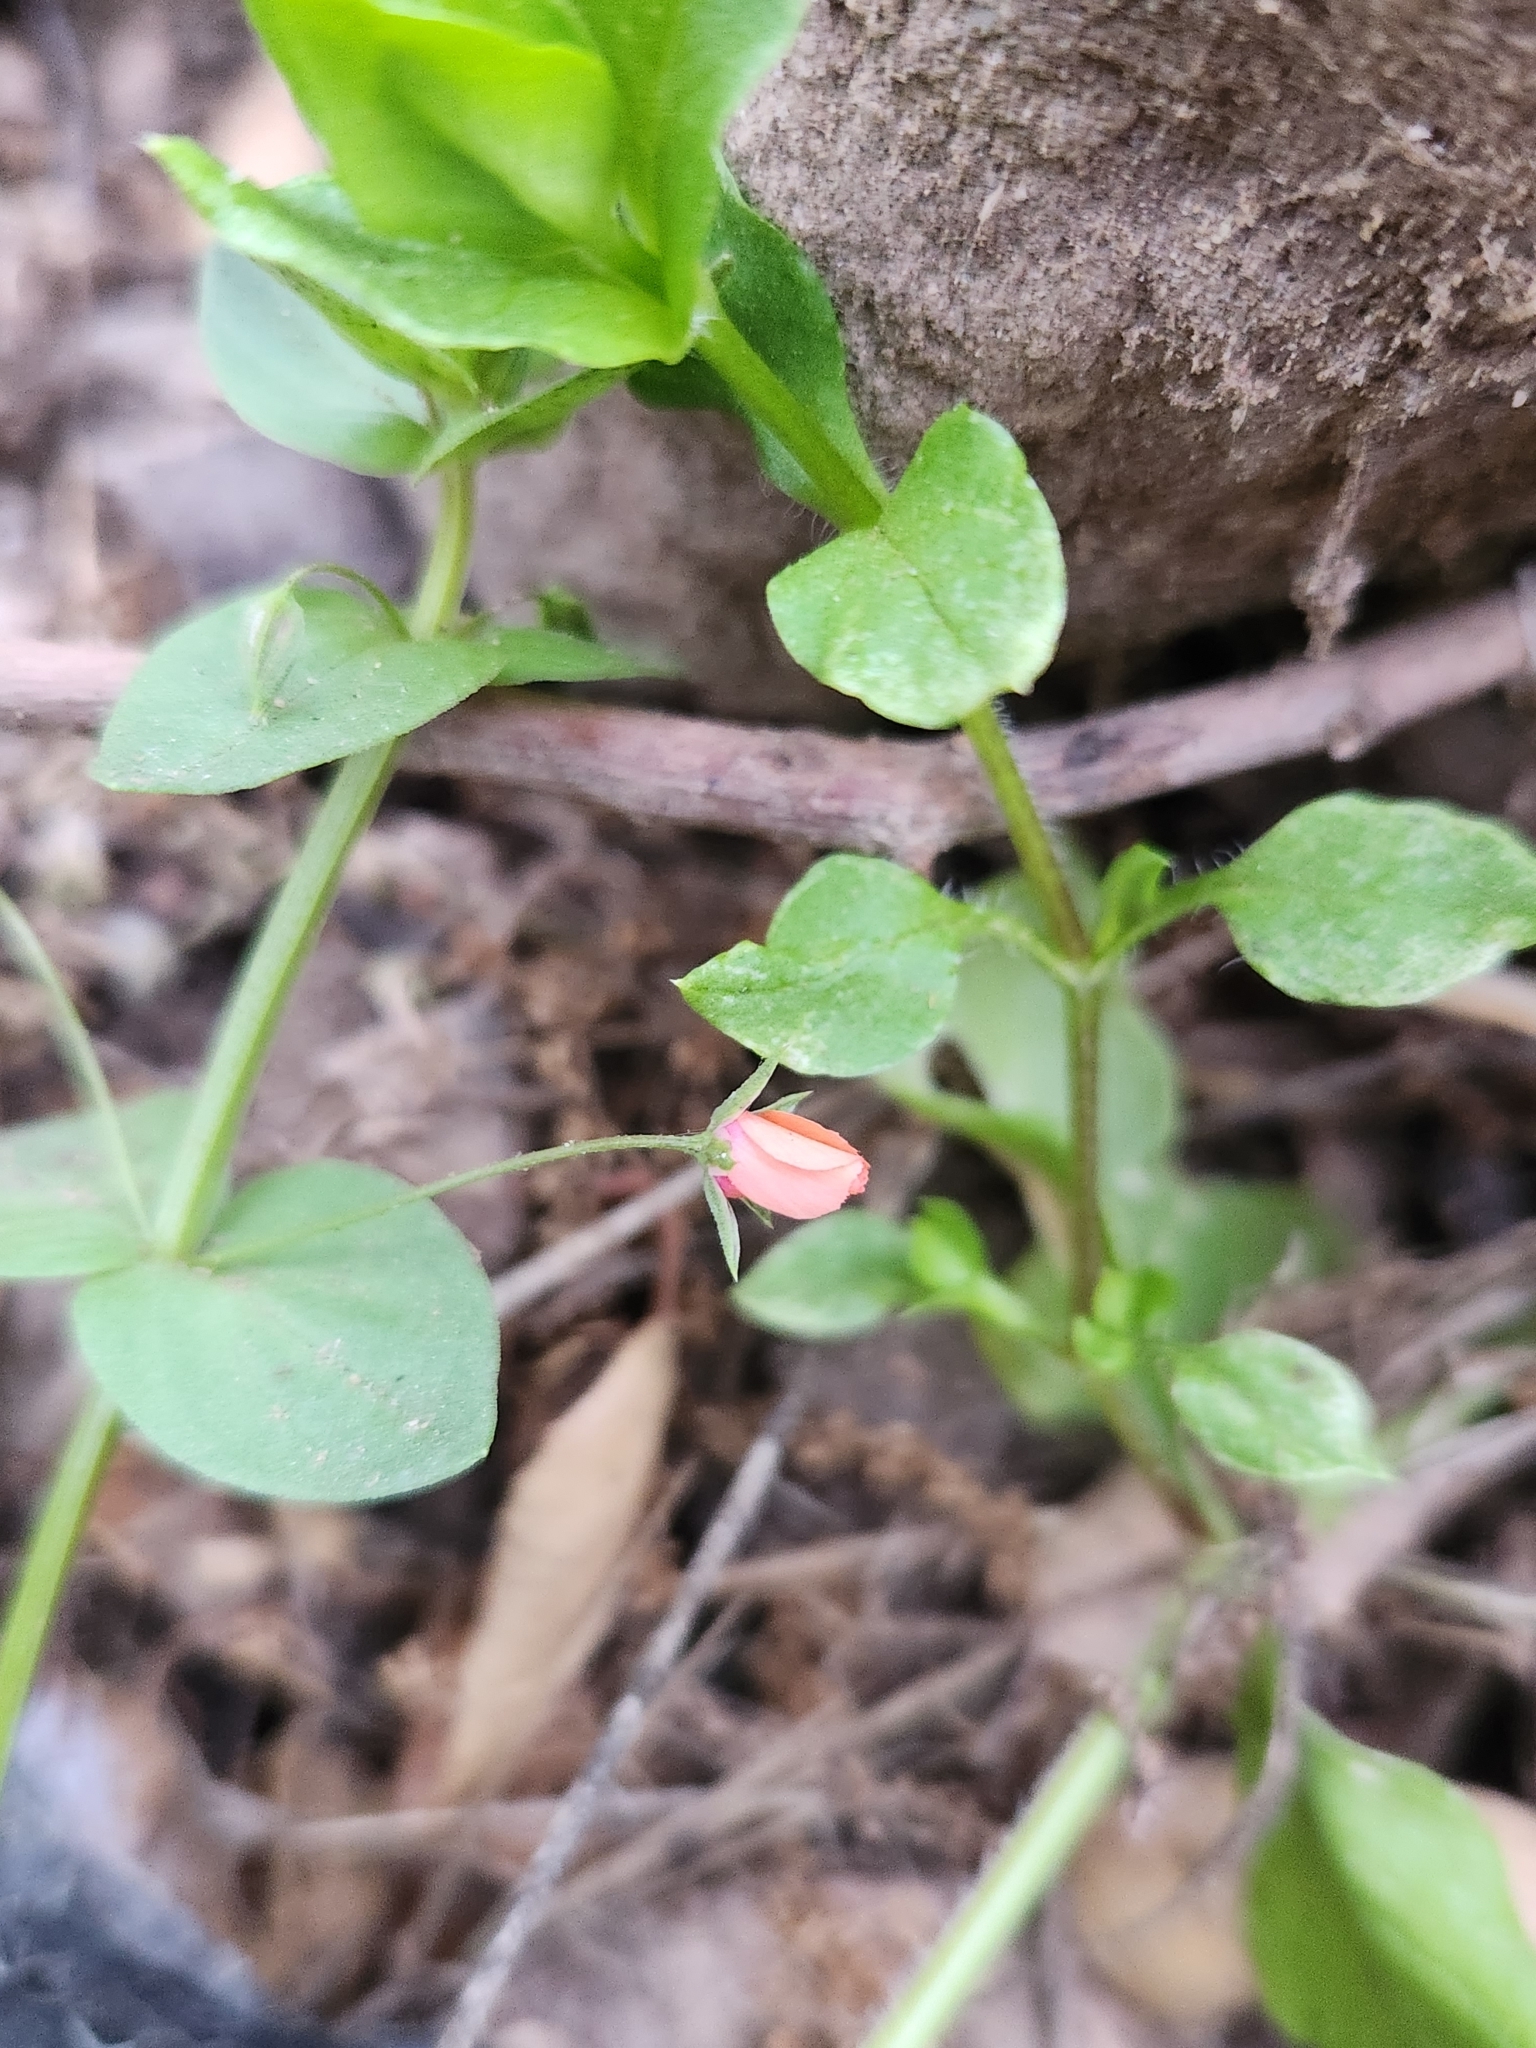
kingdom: Plantae
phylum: Tracheophyta
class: Magnoliopsida
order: Ericales
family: Primulaceae
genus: Lysimachia
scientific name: Lysimachia arvensis
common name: Scarlet pimpernel
